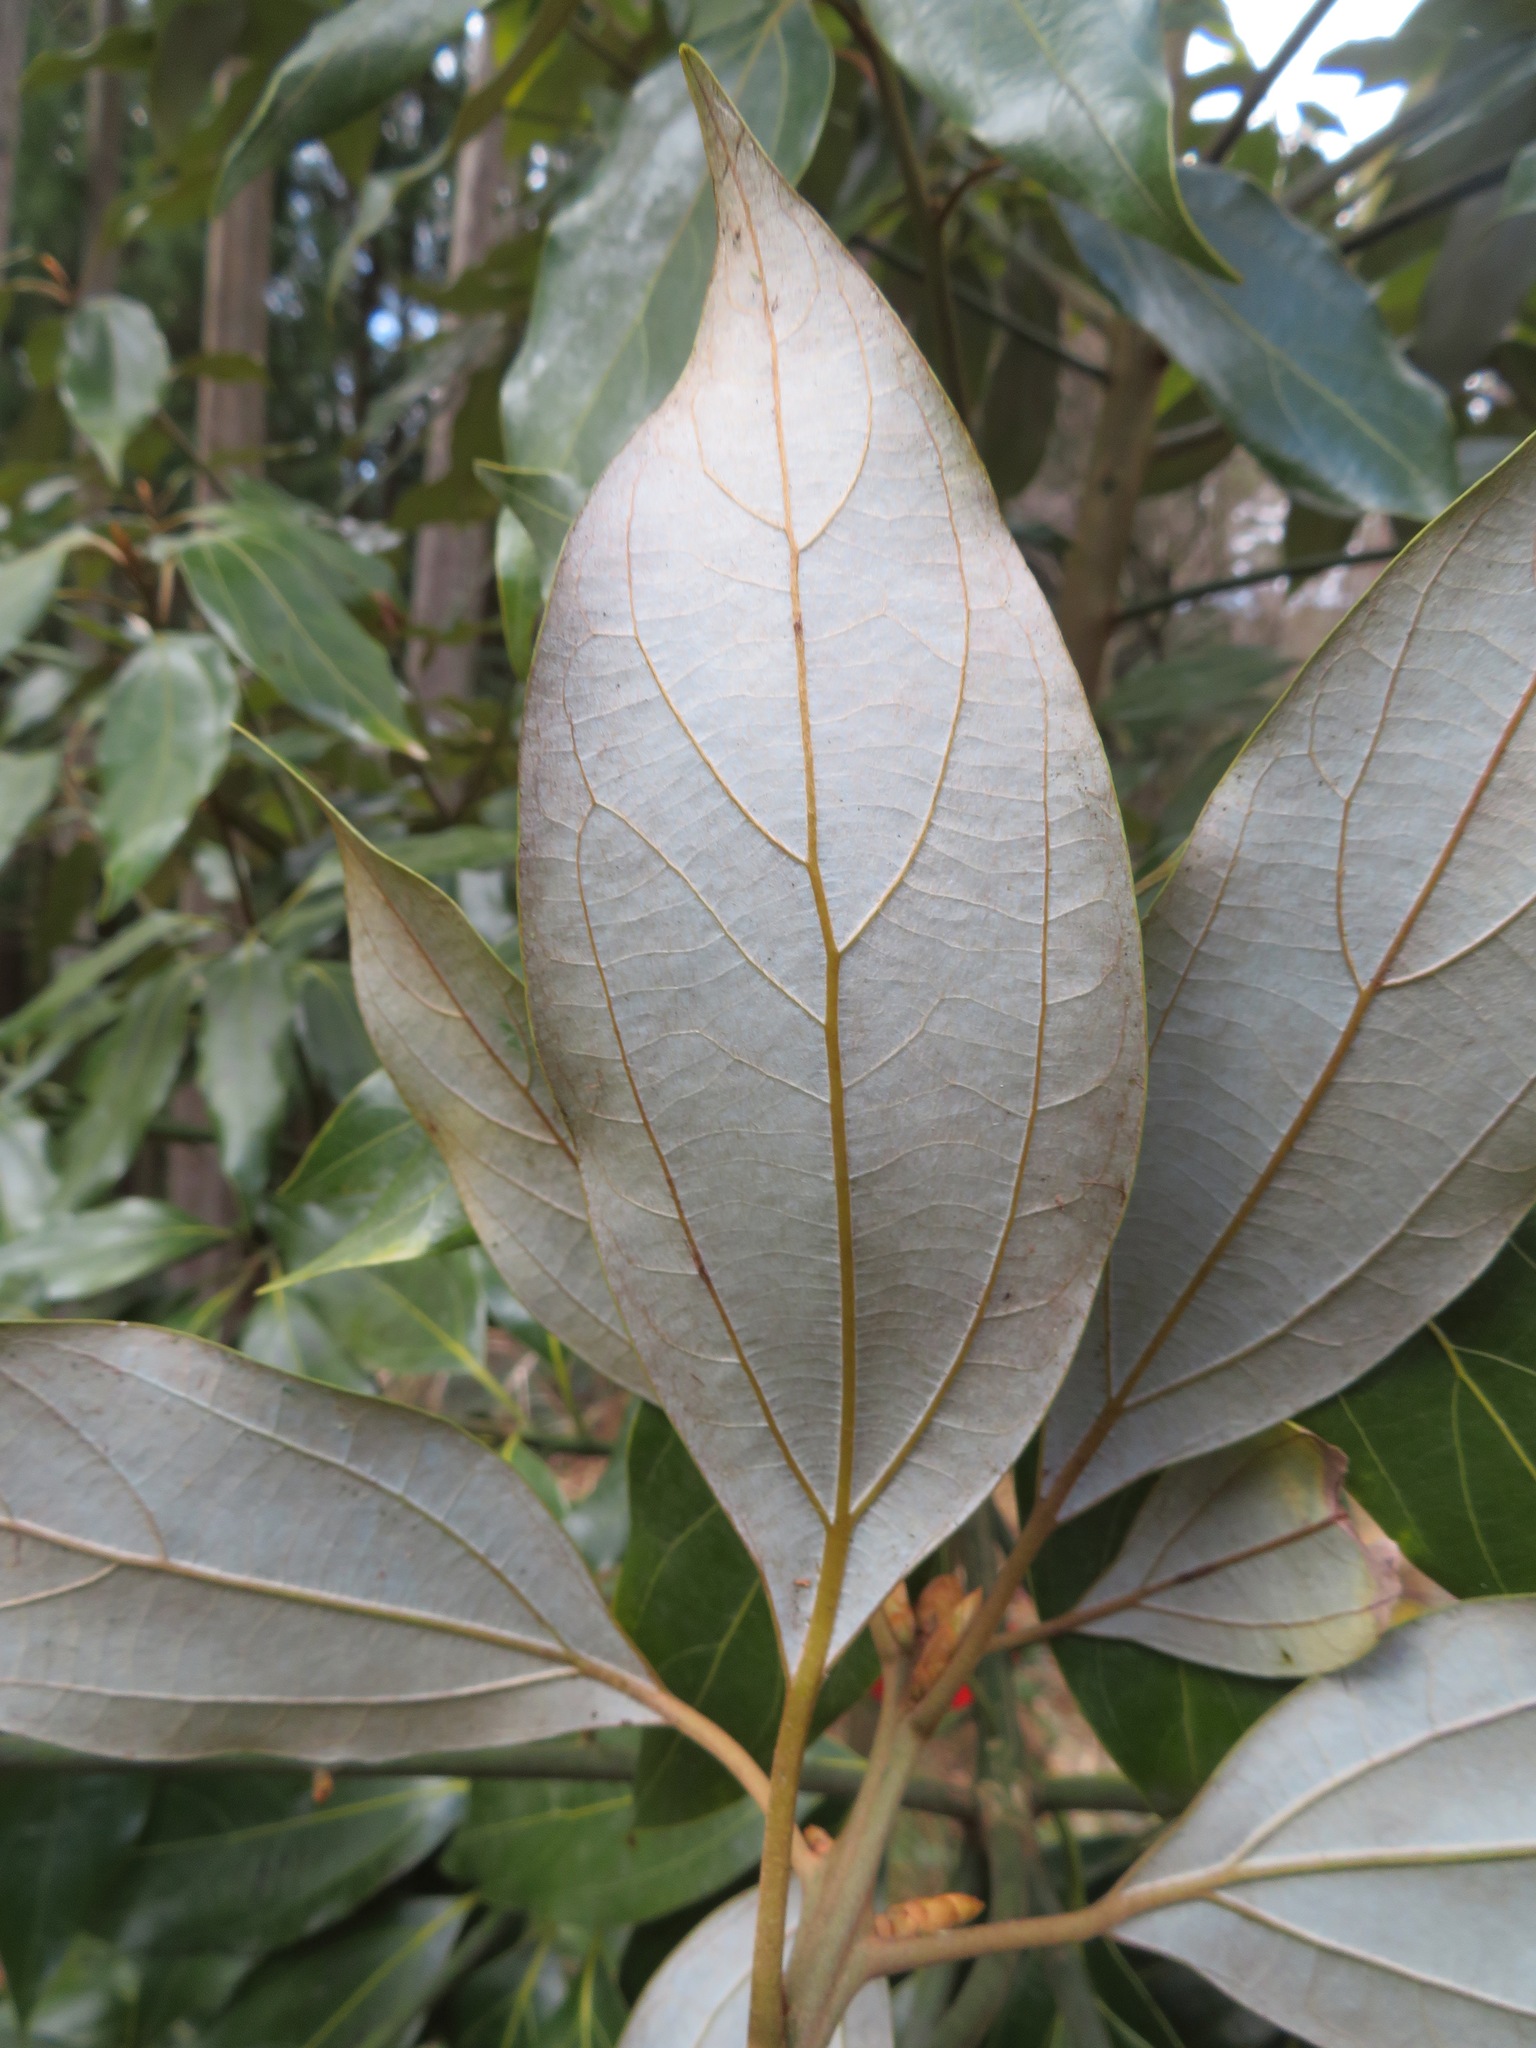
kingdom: Plantae
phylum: Tracheophyta
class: Magnoliopsida
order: Laurales
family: Lauraceae
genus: Neolitsea
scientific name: Neolitsea sericea
